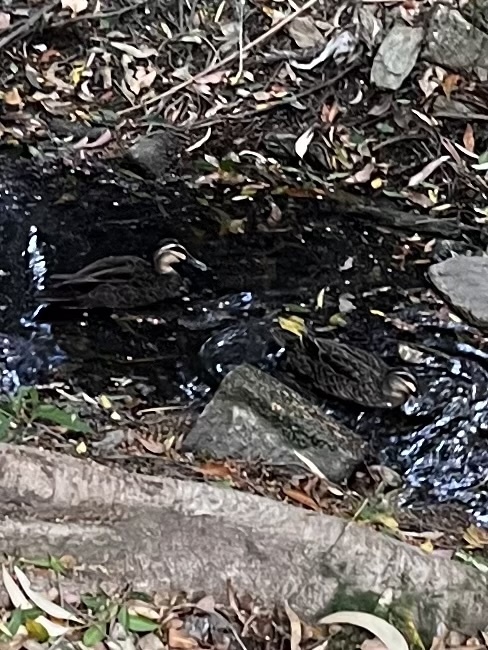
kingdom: Animalia
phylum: Chordata
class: Aves
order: Anseriformes
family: Anatidae
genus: Anas
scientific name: Anas superciliosa
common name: Pacific black duck
